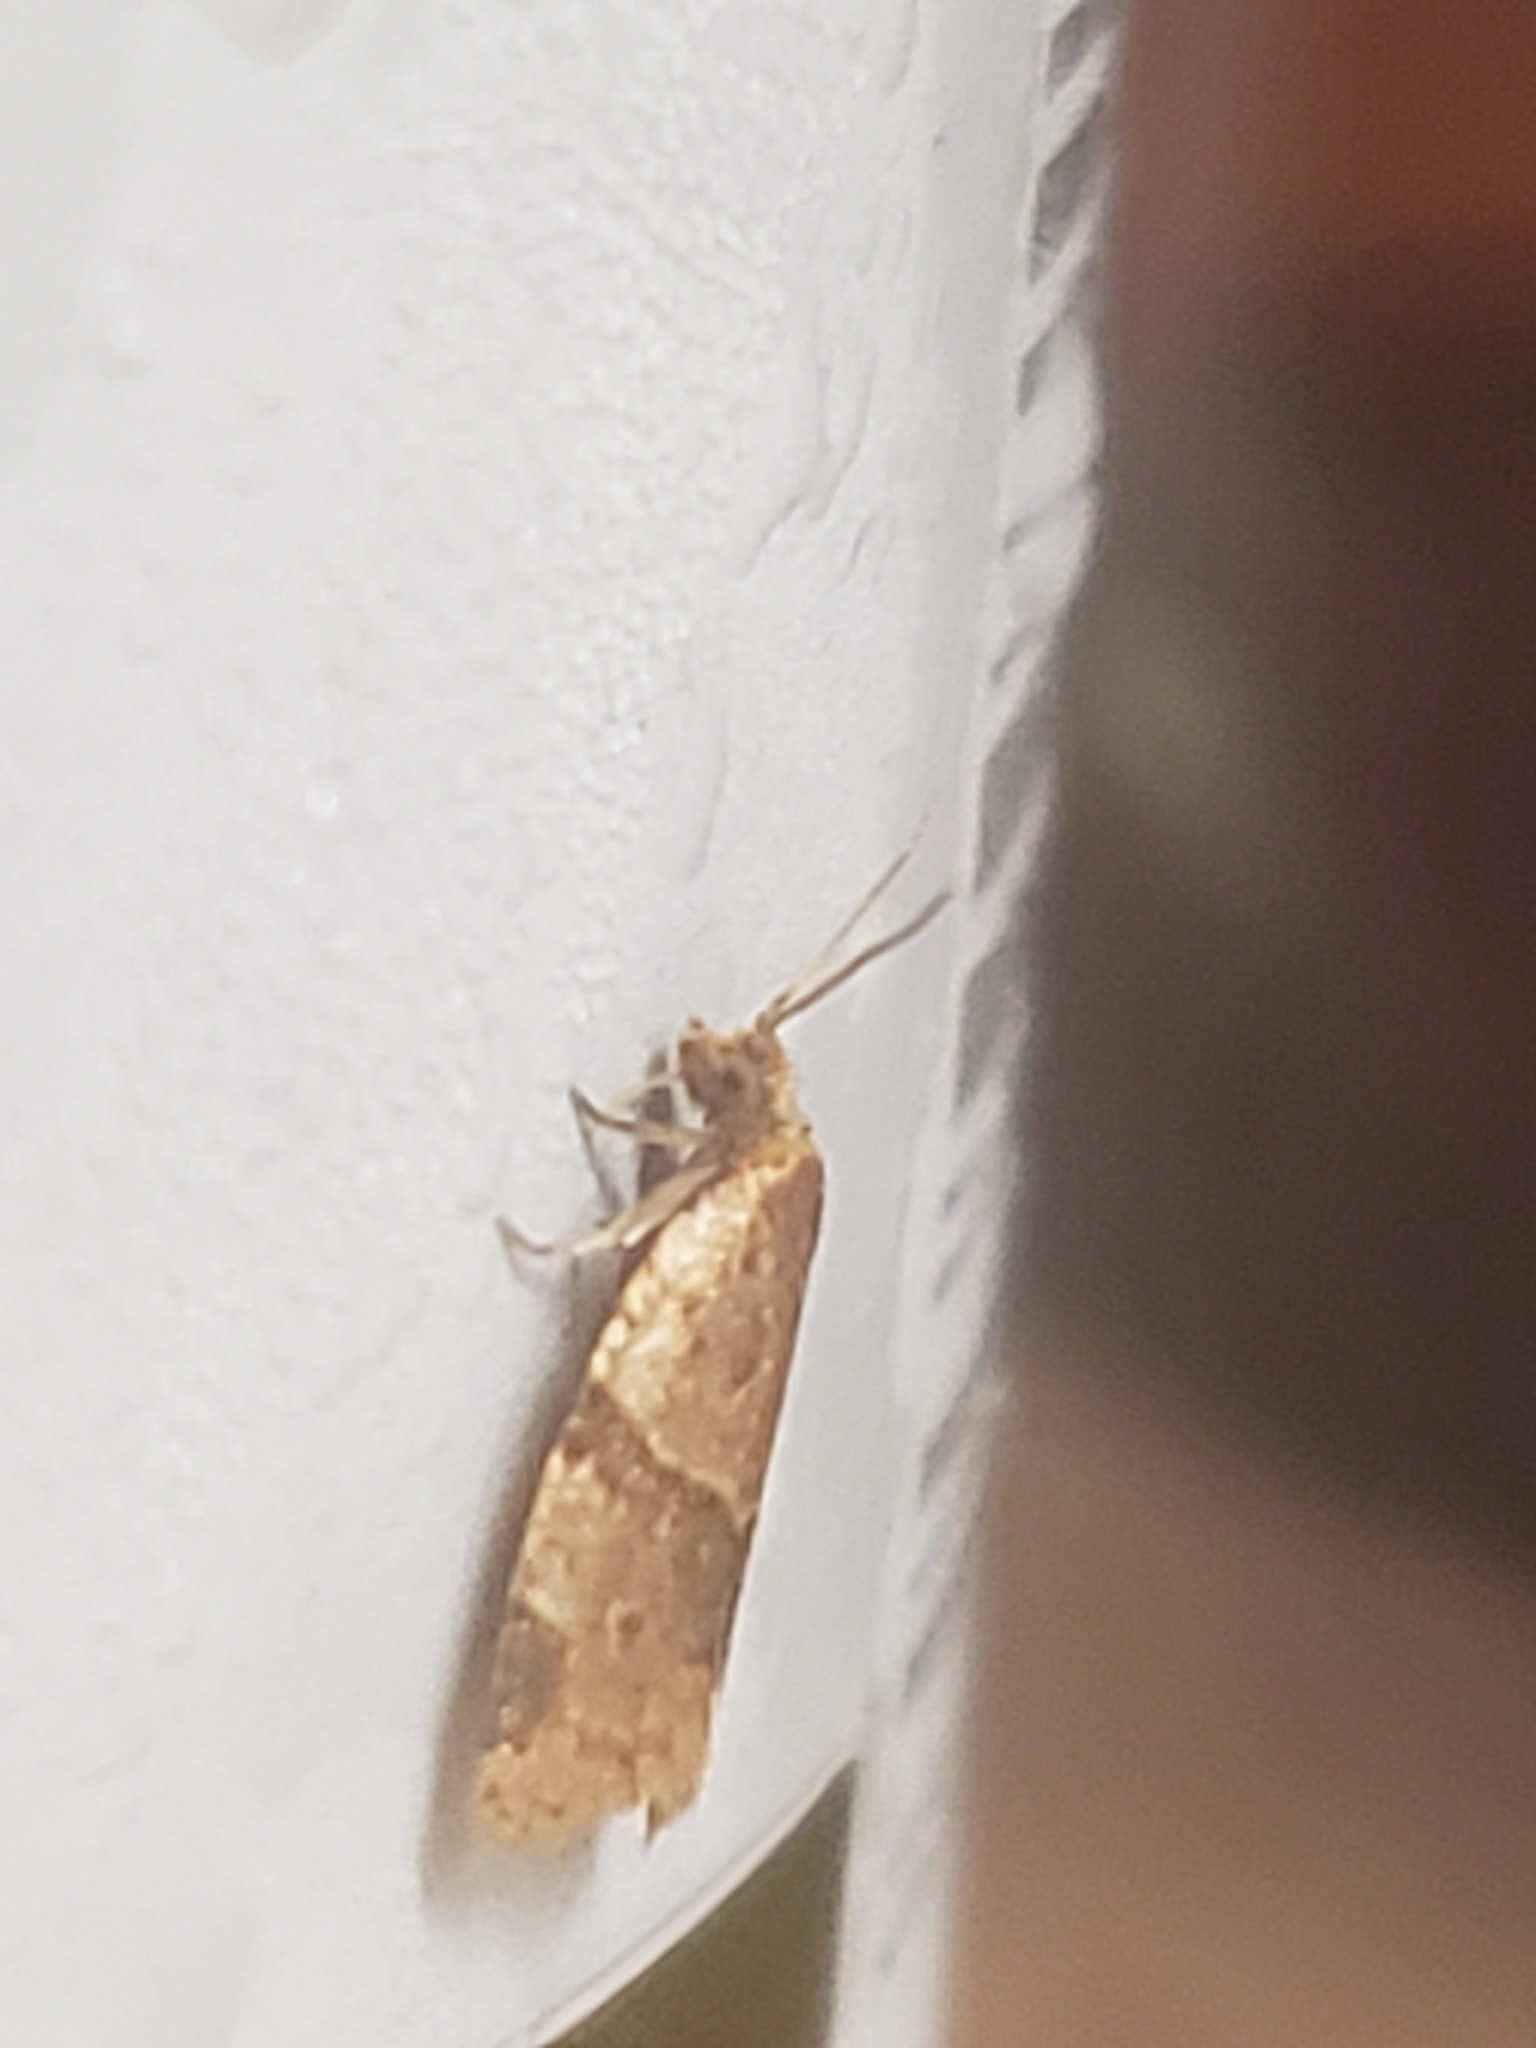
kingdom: Animalia
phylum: Arthropoda
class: Insecta
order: Lepidoptera
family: Tortricidae
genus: Clepsis
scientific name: Clepsis peritana
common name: Garden tortrix
